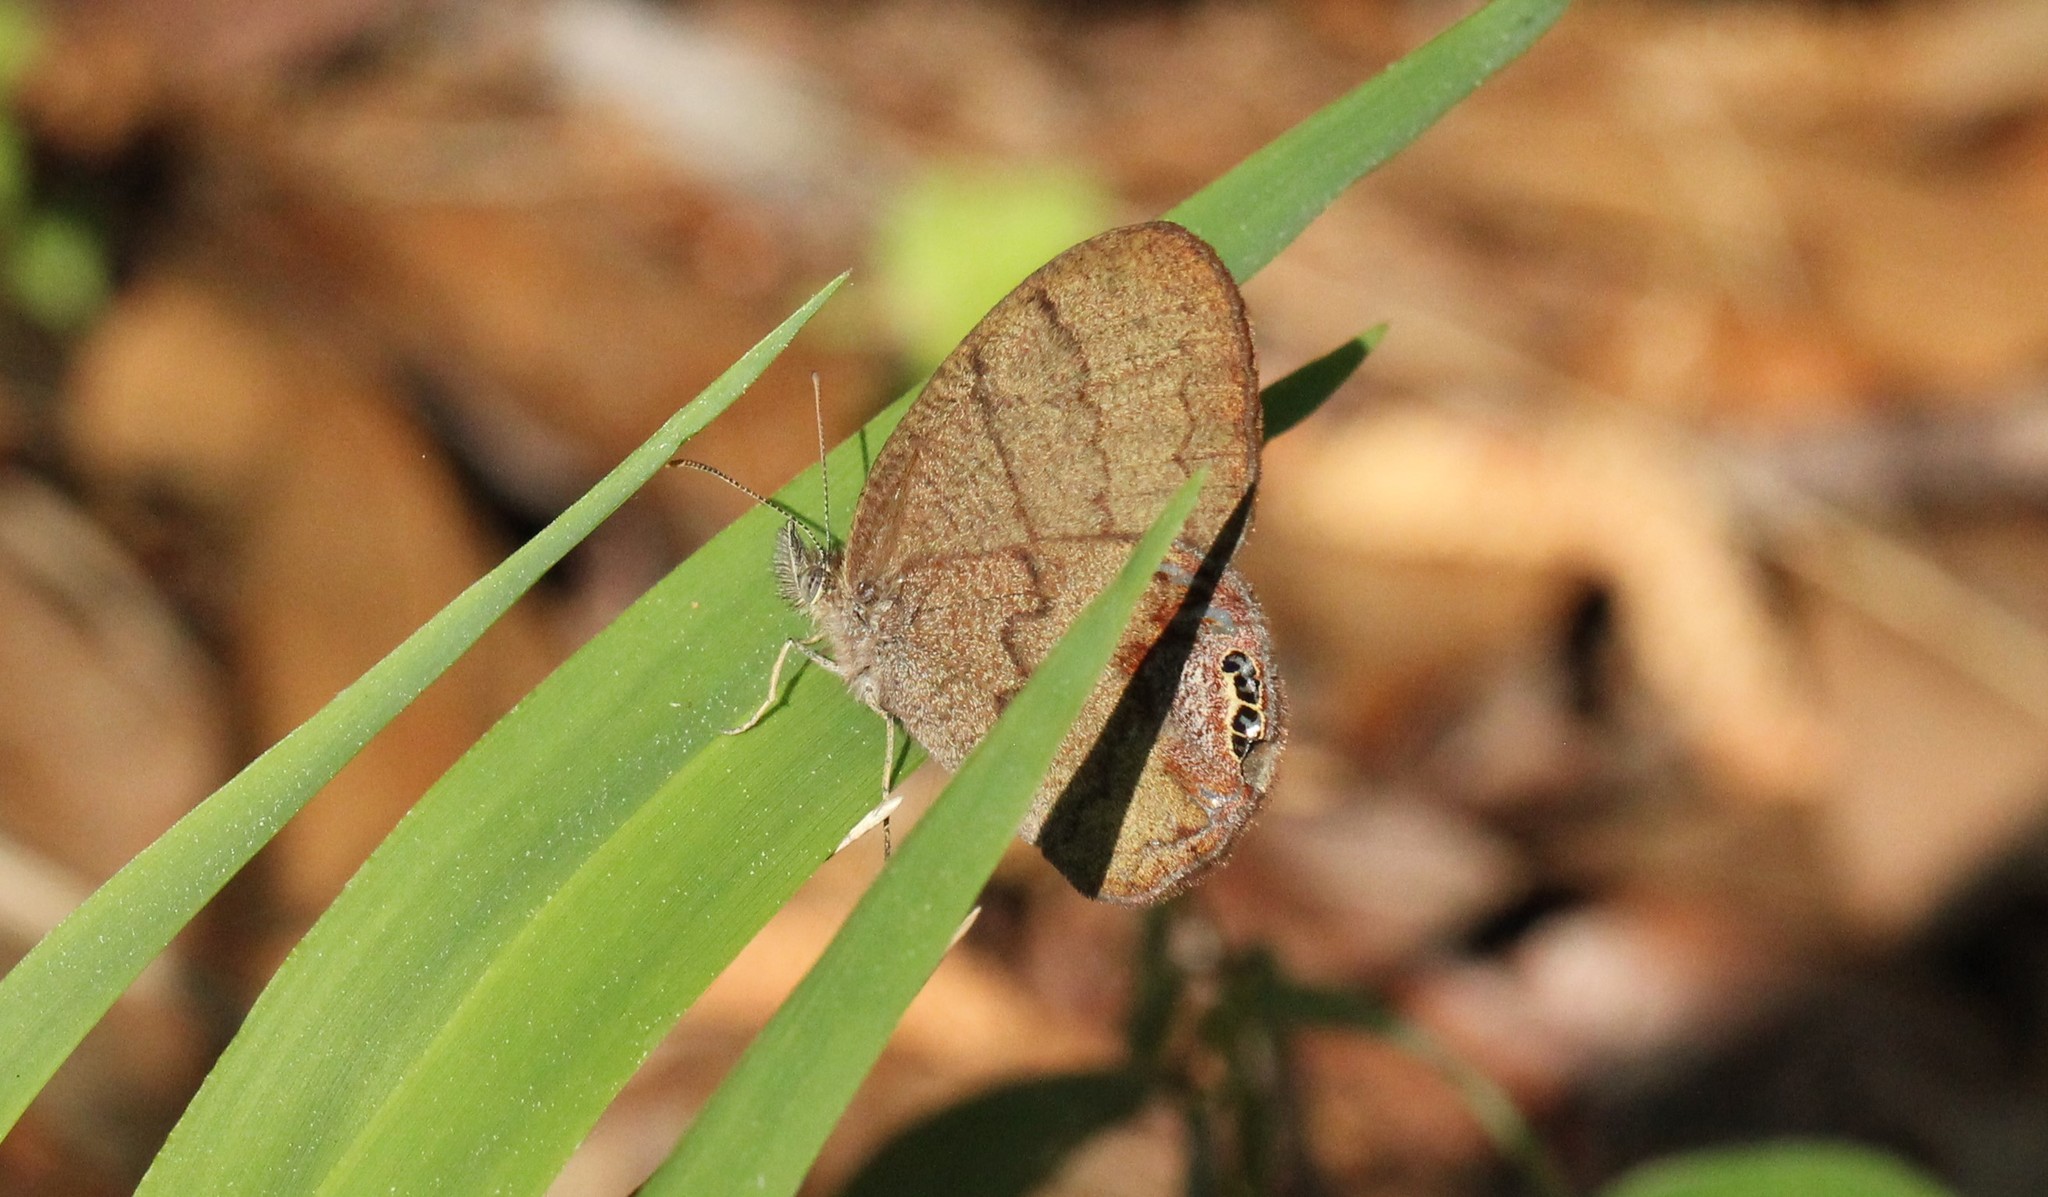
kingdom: Animalia
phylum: Arthropoda
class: Insecta
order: Lepidoptera
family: Nymphalidae
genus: Euptychia
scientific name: Euptychia cornelius
